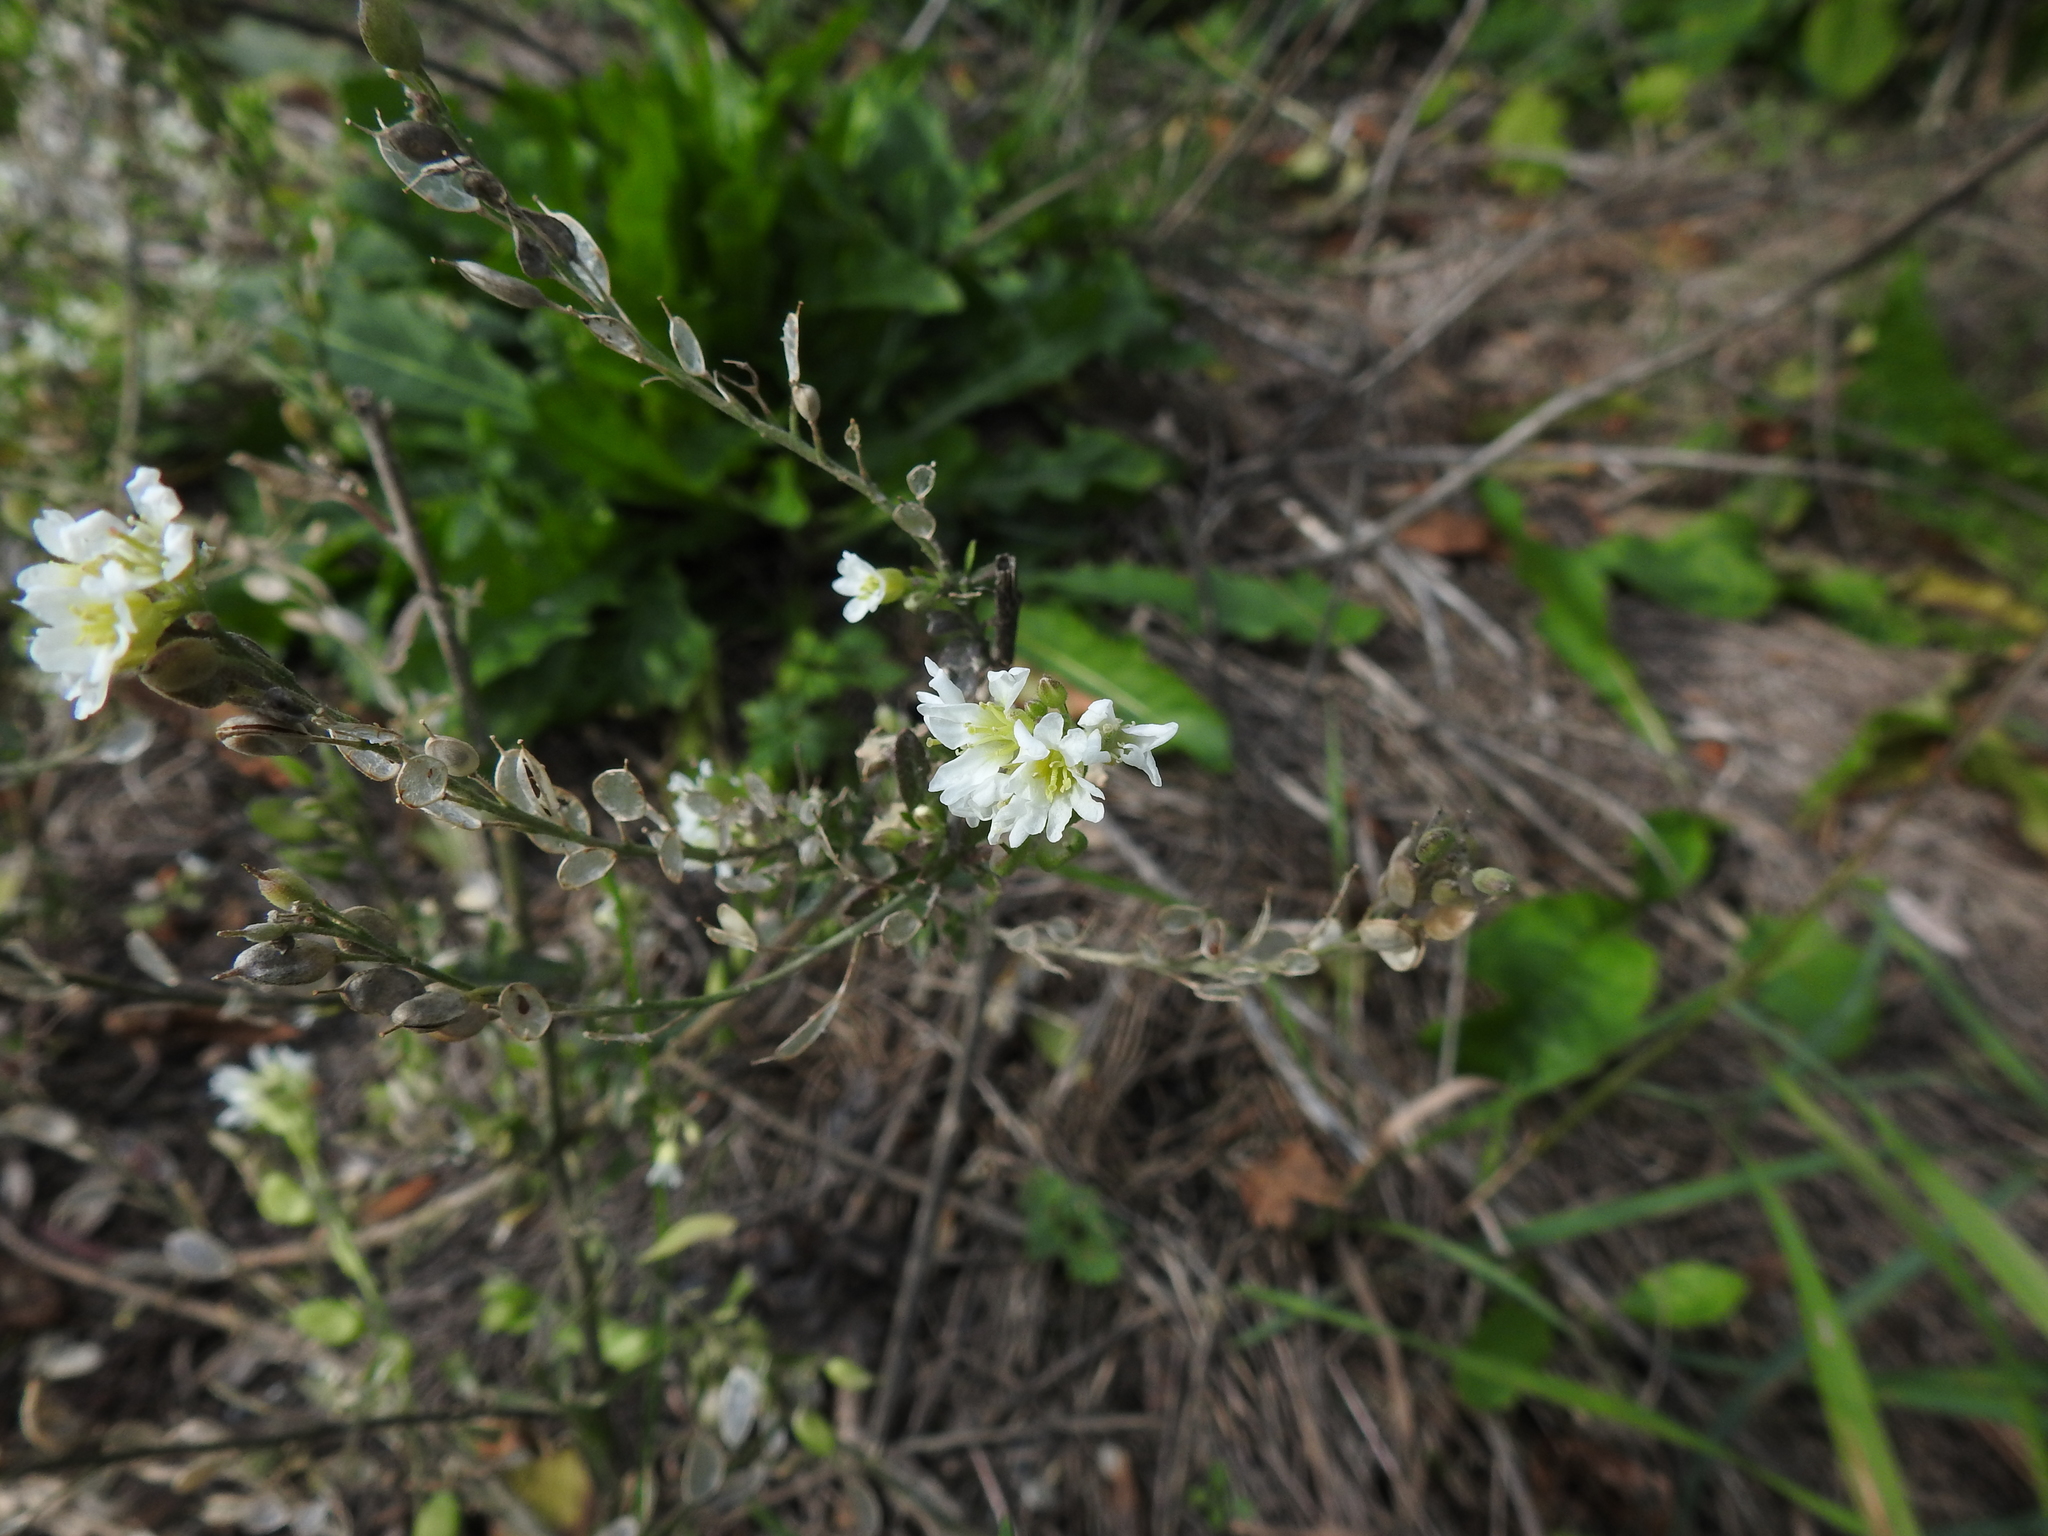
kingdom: Plantae
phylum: Tracheophyta
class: Magnoliopsida
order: Brassicales
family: Brassicaceae
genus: Berteroa
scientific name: Berteroa incana
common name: Hoary alison
